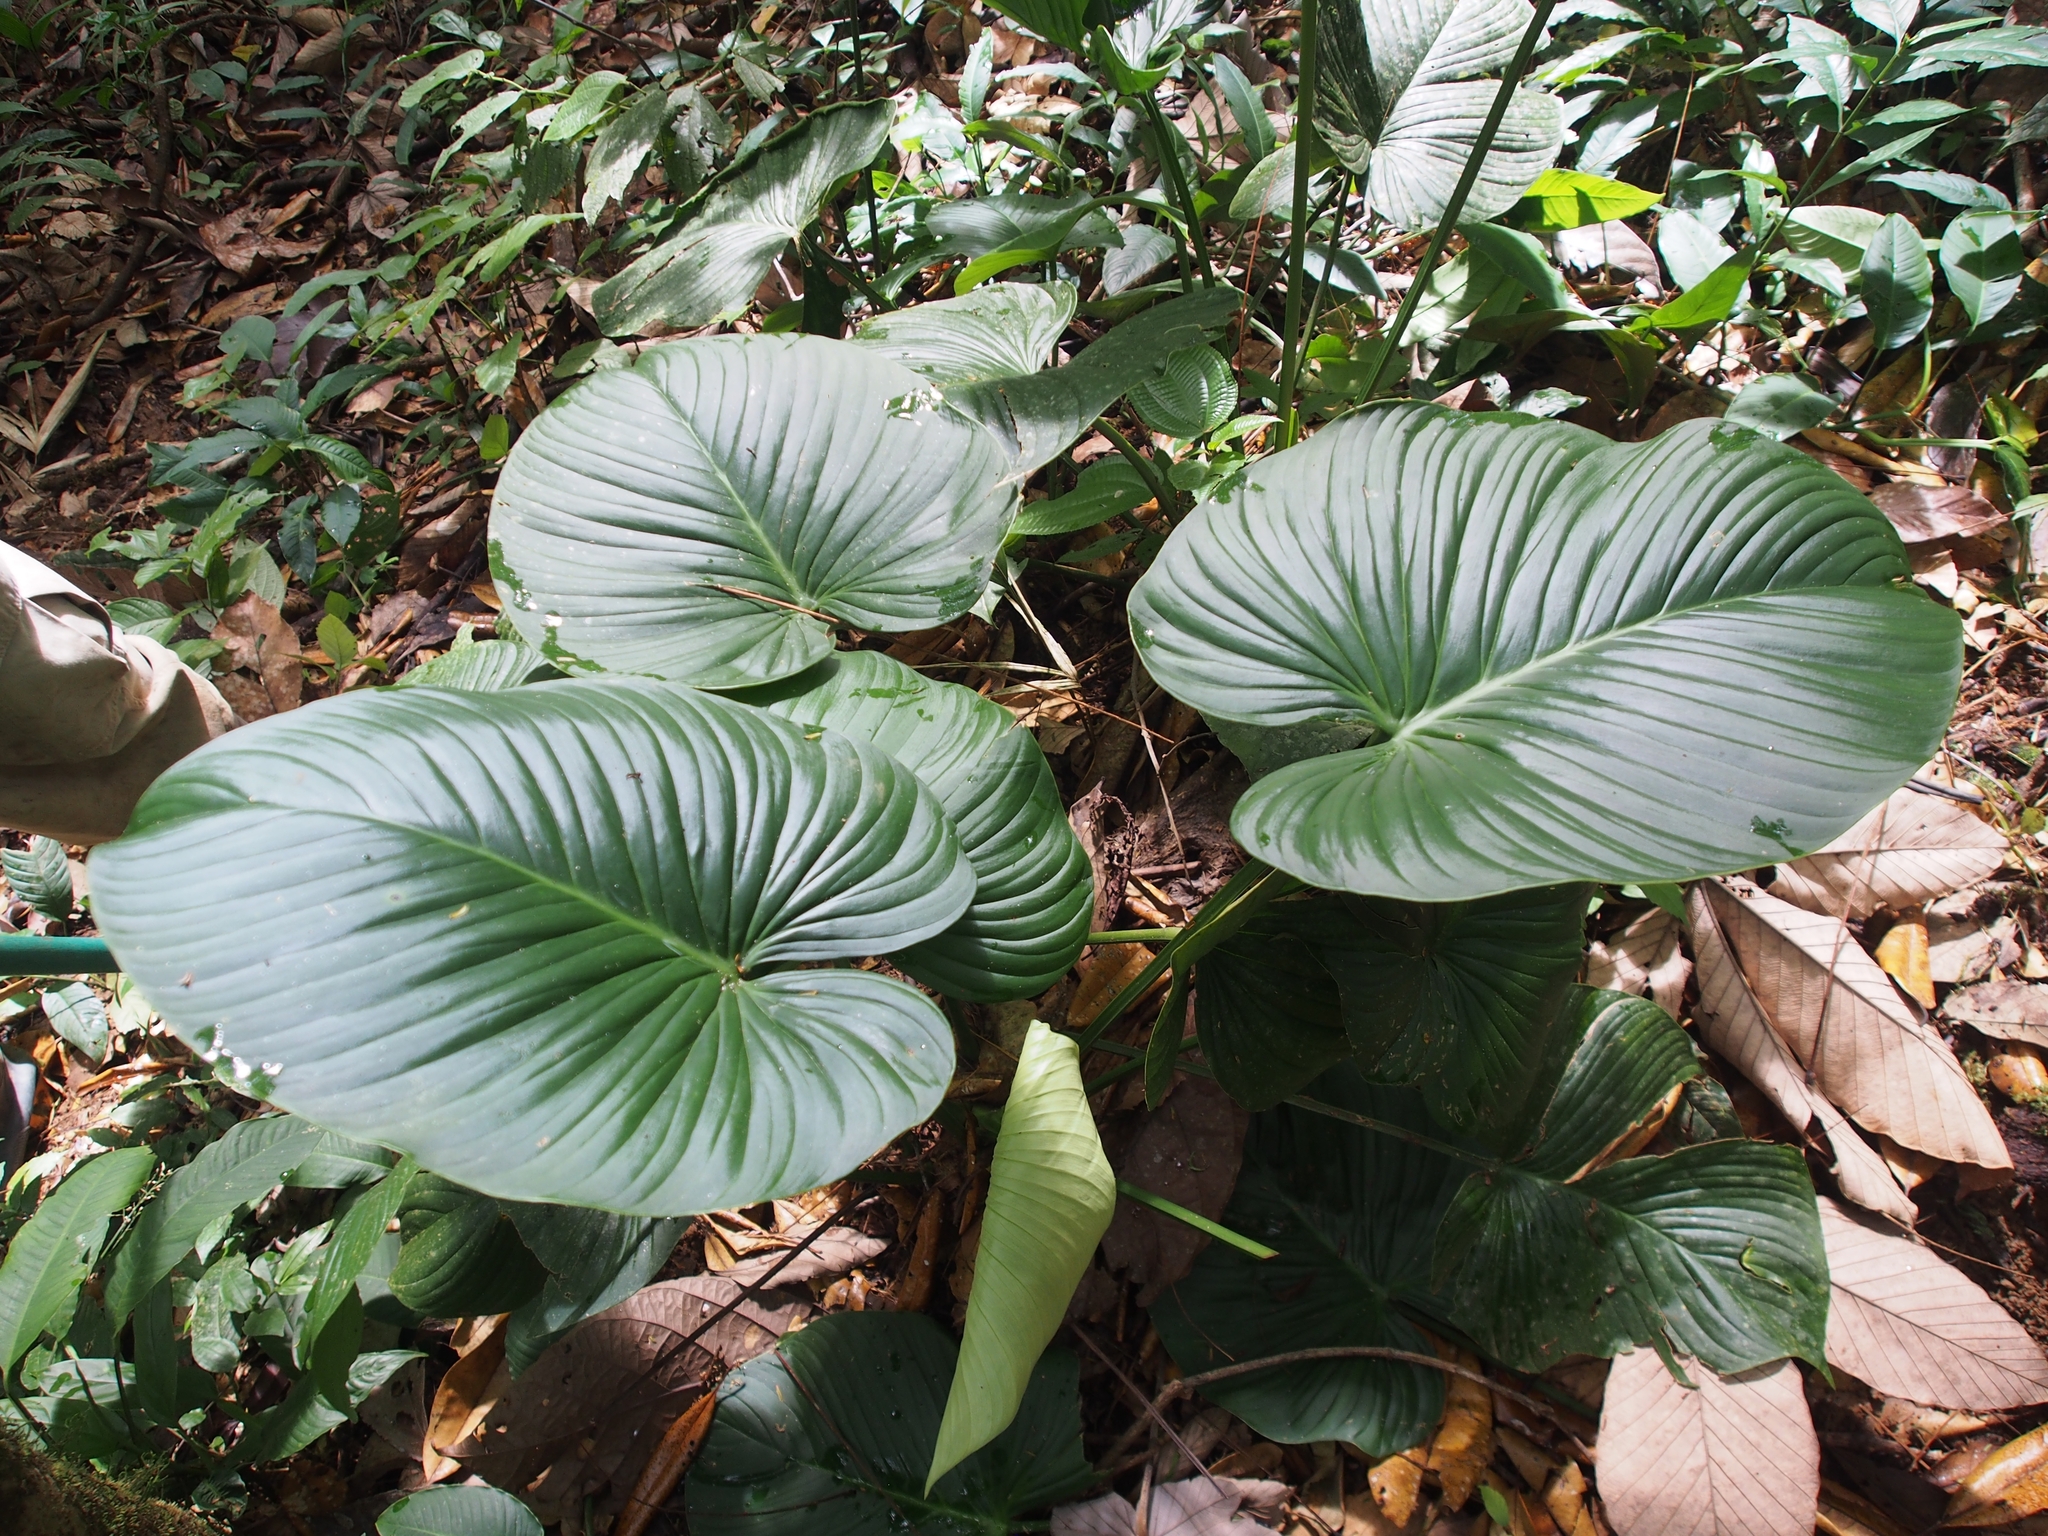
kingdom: Plantae
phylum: Tracheophyta
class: Liliopsida
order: Alismatales
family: Araceae
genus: Philodendron
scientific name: Philodendron grandipes
